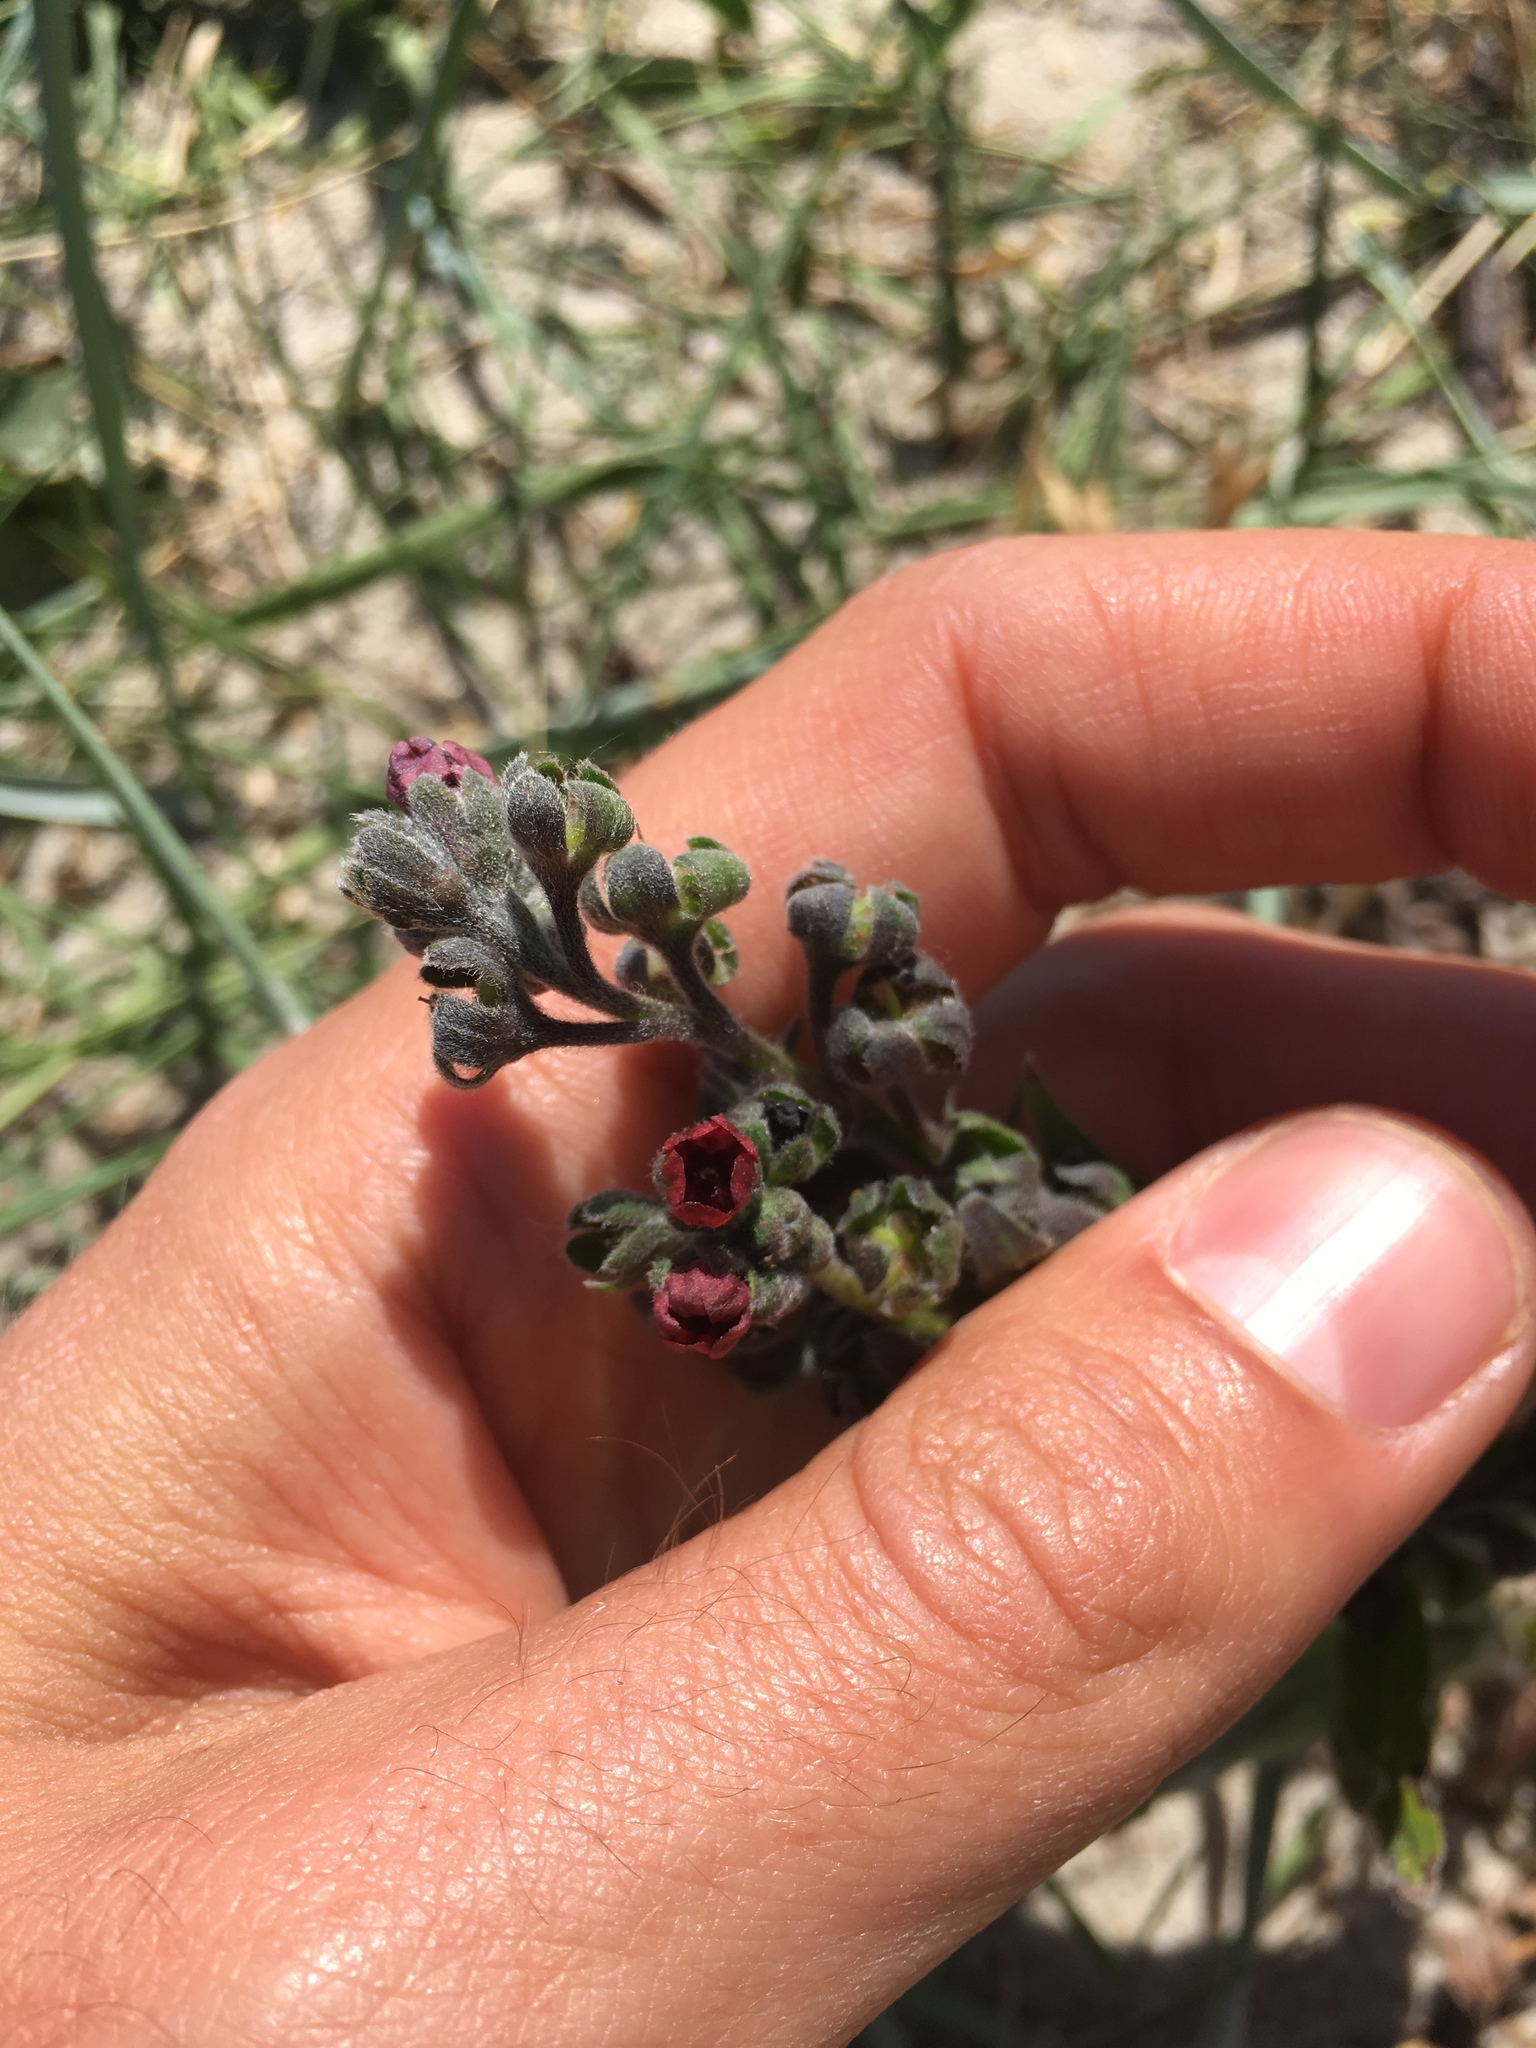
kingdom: Plantae
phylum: Tracheophyta
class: Magnoliopsida
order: Boraginales
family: Boraginaceae
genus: Cynoglossum
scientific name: Cynoglossum officinale
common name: Hound's-tongue
